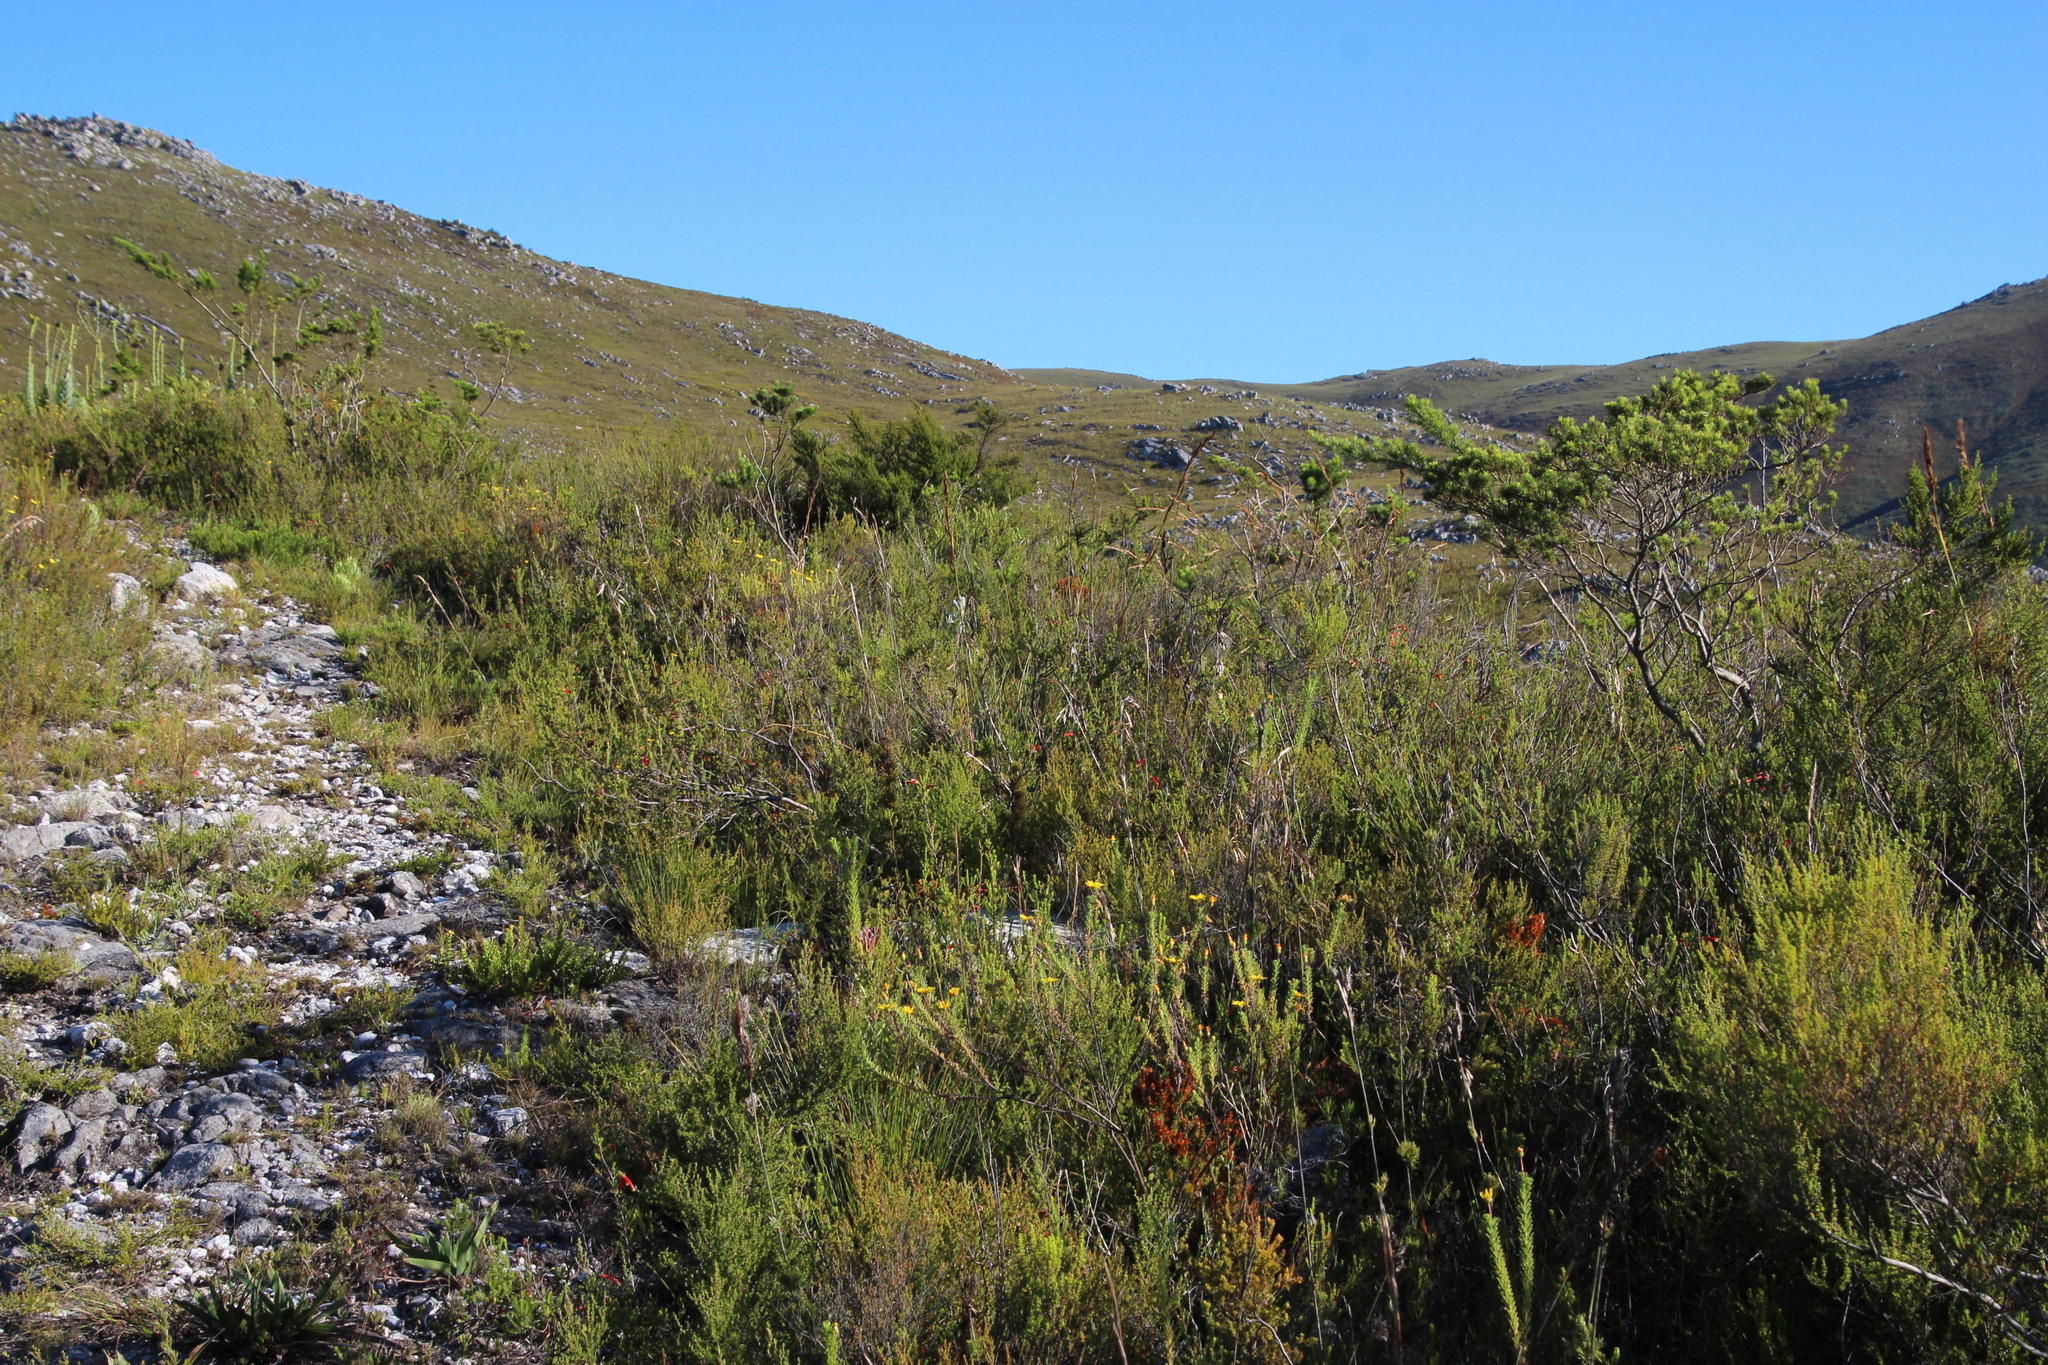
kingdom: Plantae
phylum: Tracheophyta
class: Magnoliopsida
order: Rosales
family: Rosaceae
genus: Cliffortia
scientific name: Cliffortia serpyllifolia
